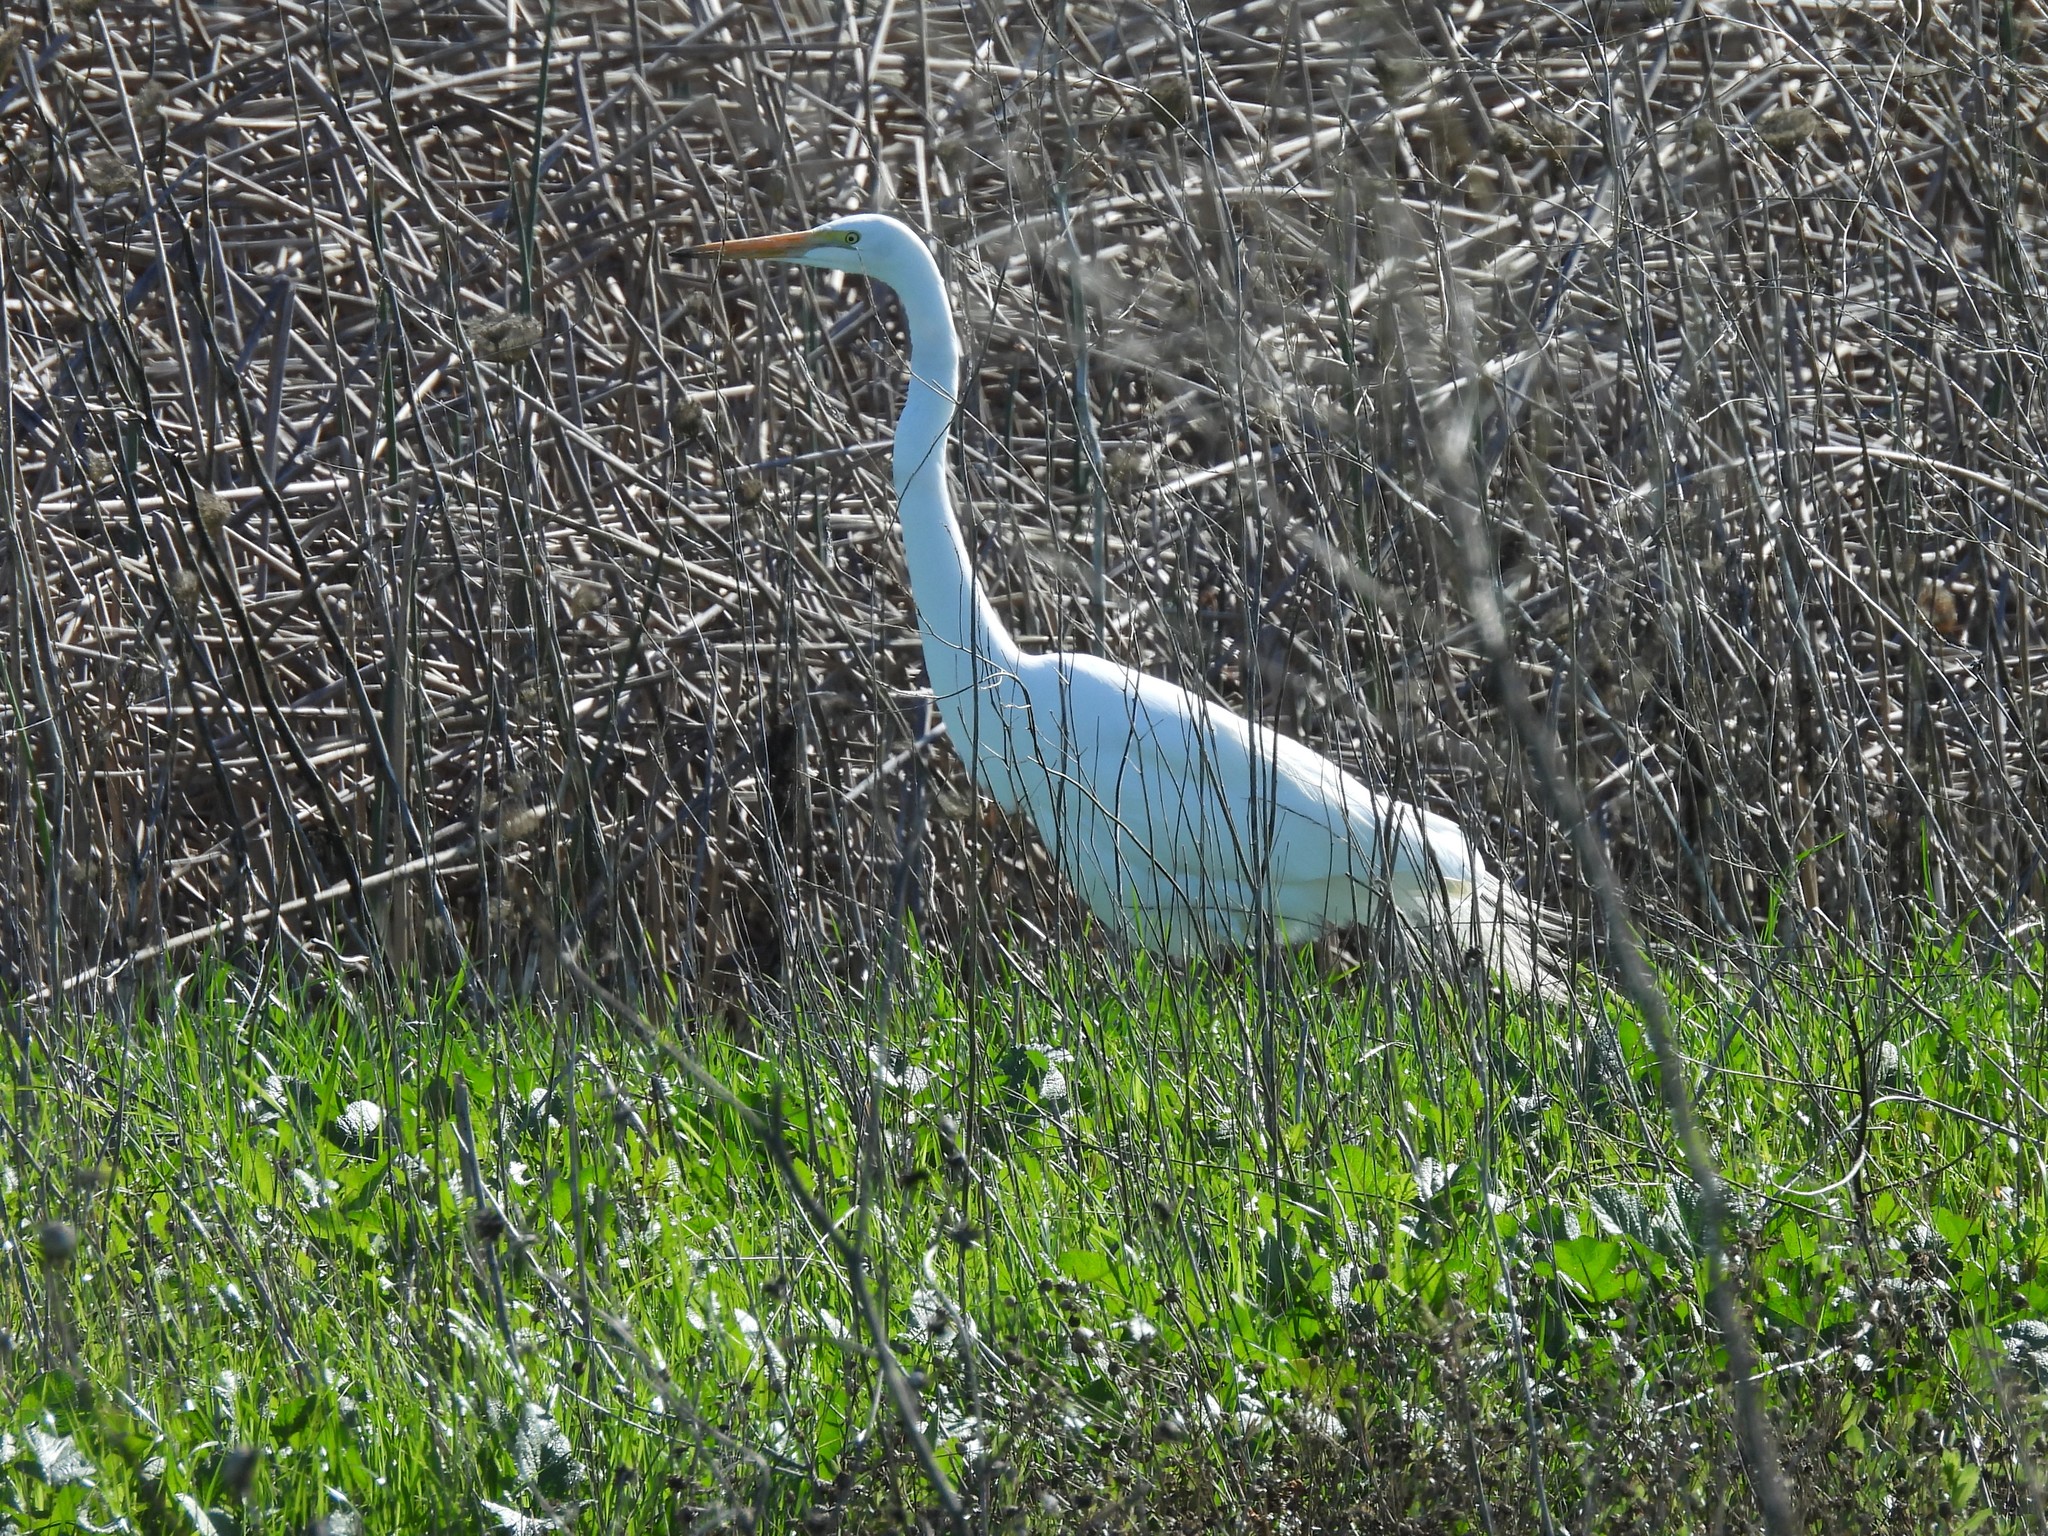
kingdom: Animalia
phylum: Chordata
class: Aves
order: Pelecaniformes
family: Ardeidae
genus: Ardea
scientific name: Ardea alba
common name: Great egret
